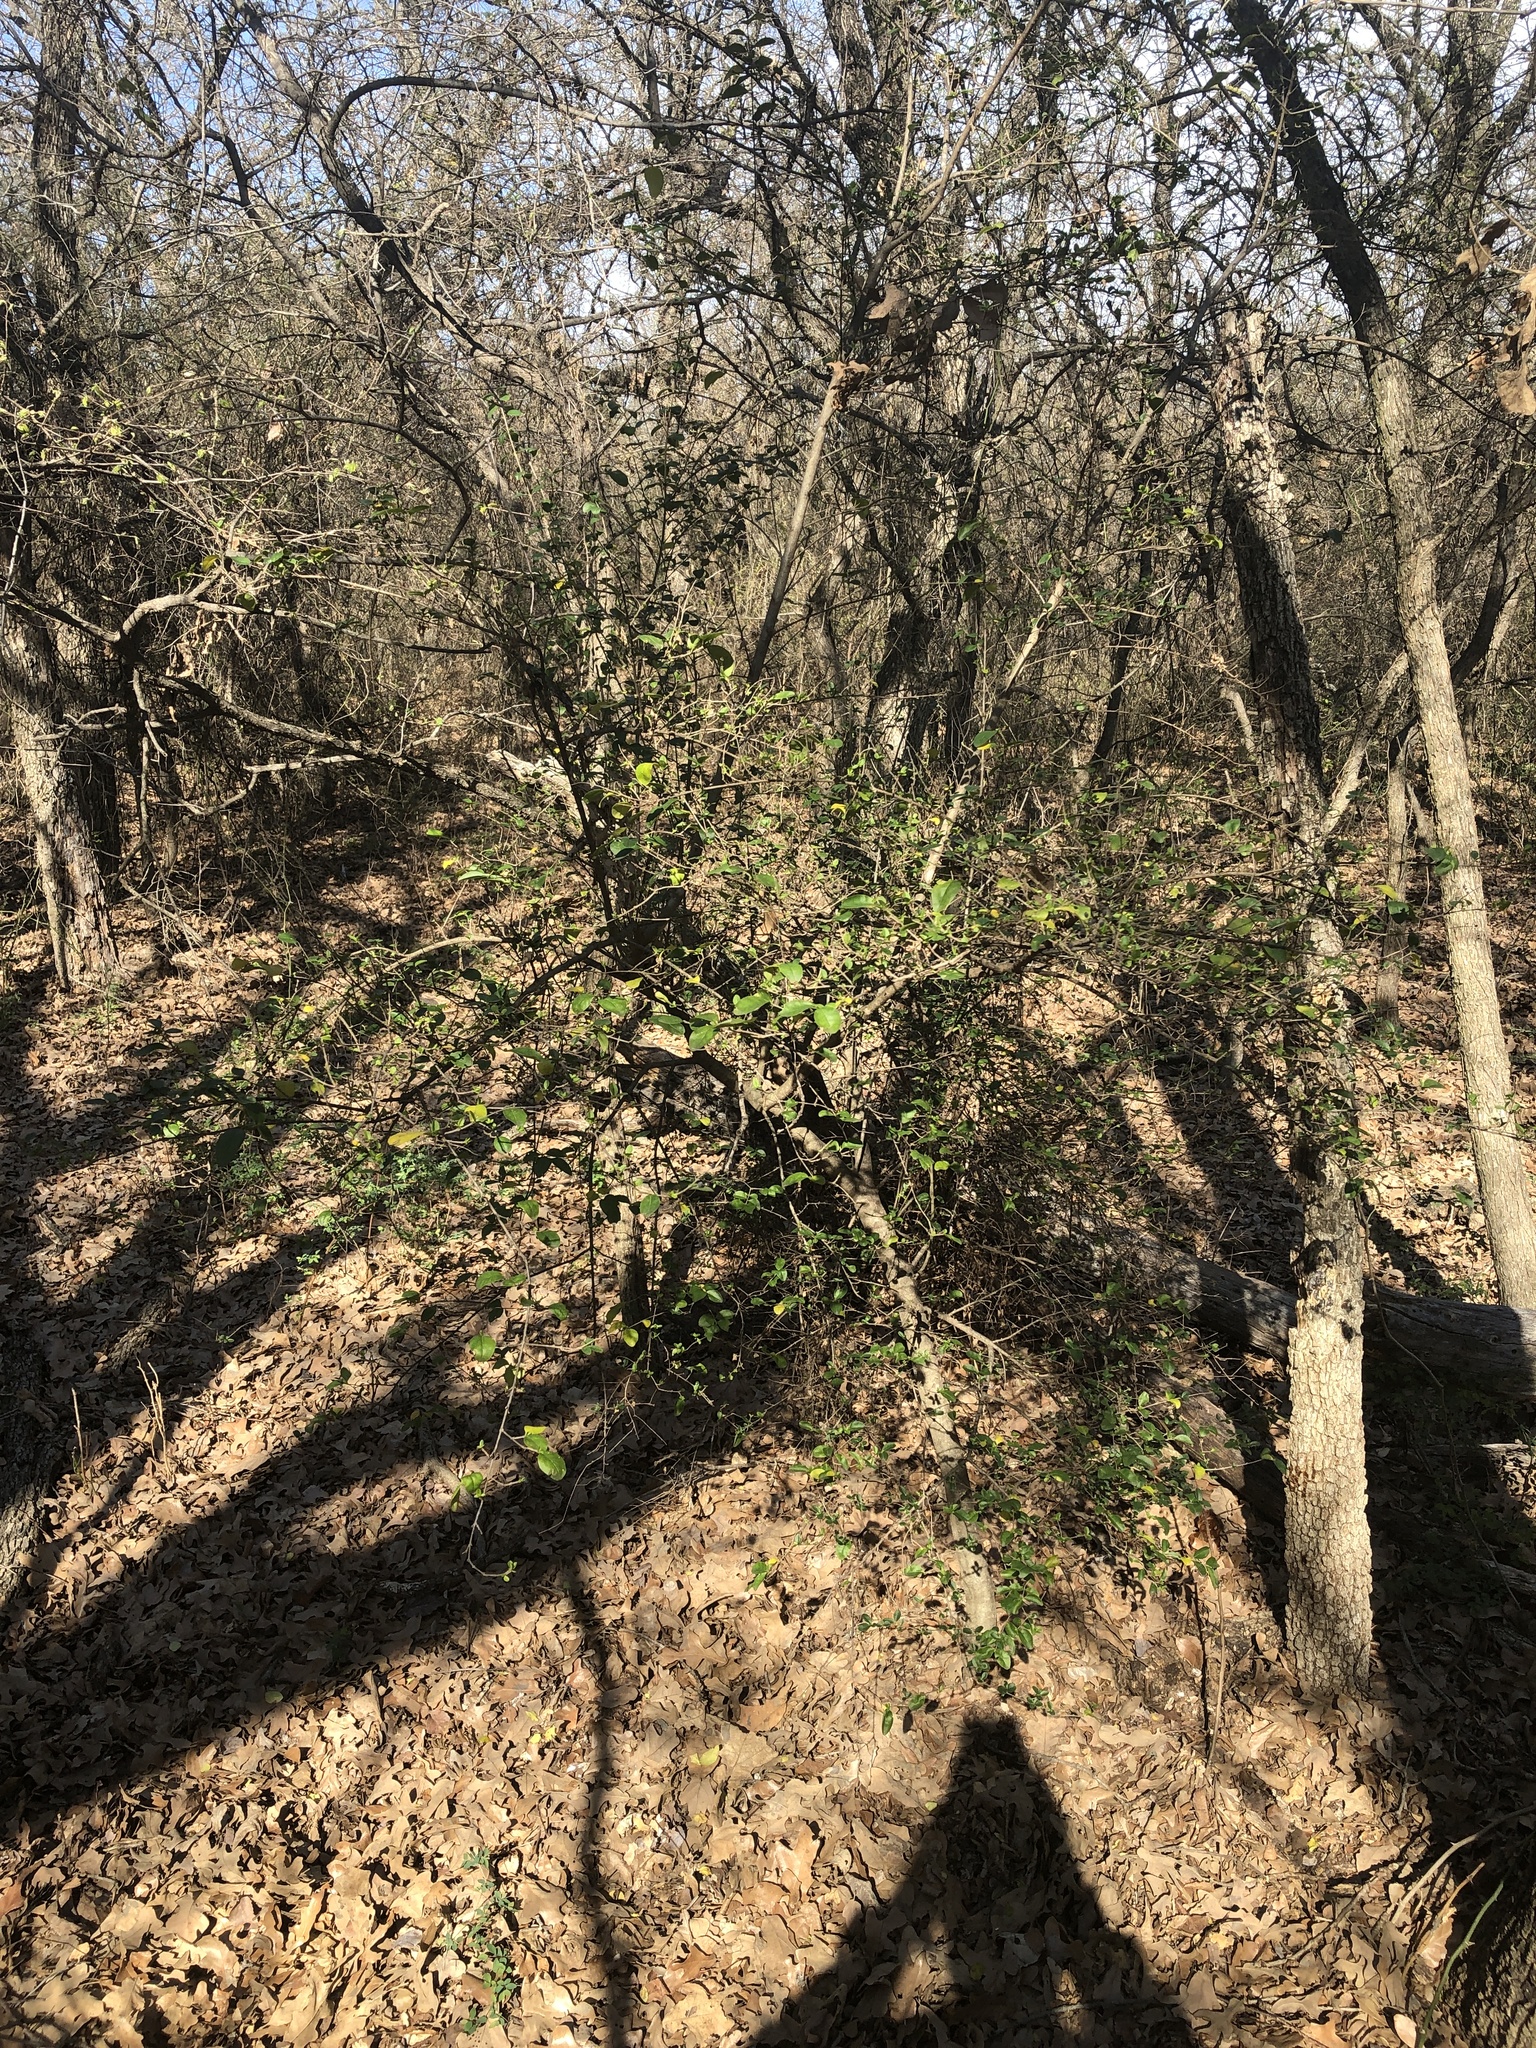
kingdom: Plantae
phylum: Tracheophyta
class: Magnoliopsida
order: Lamiales
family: Oleaceae
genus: Ligustrum
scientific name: Ligustrum sinense
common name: Chinese privet
